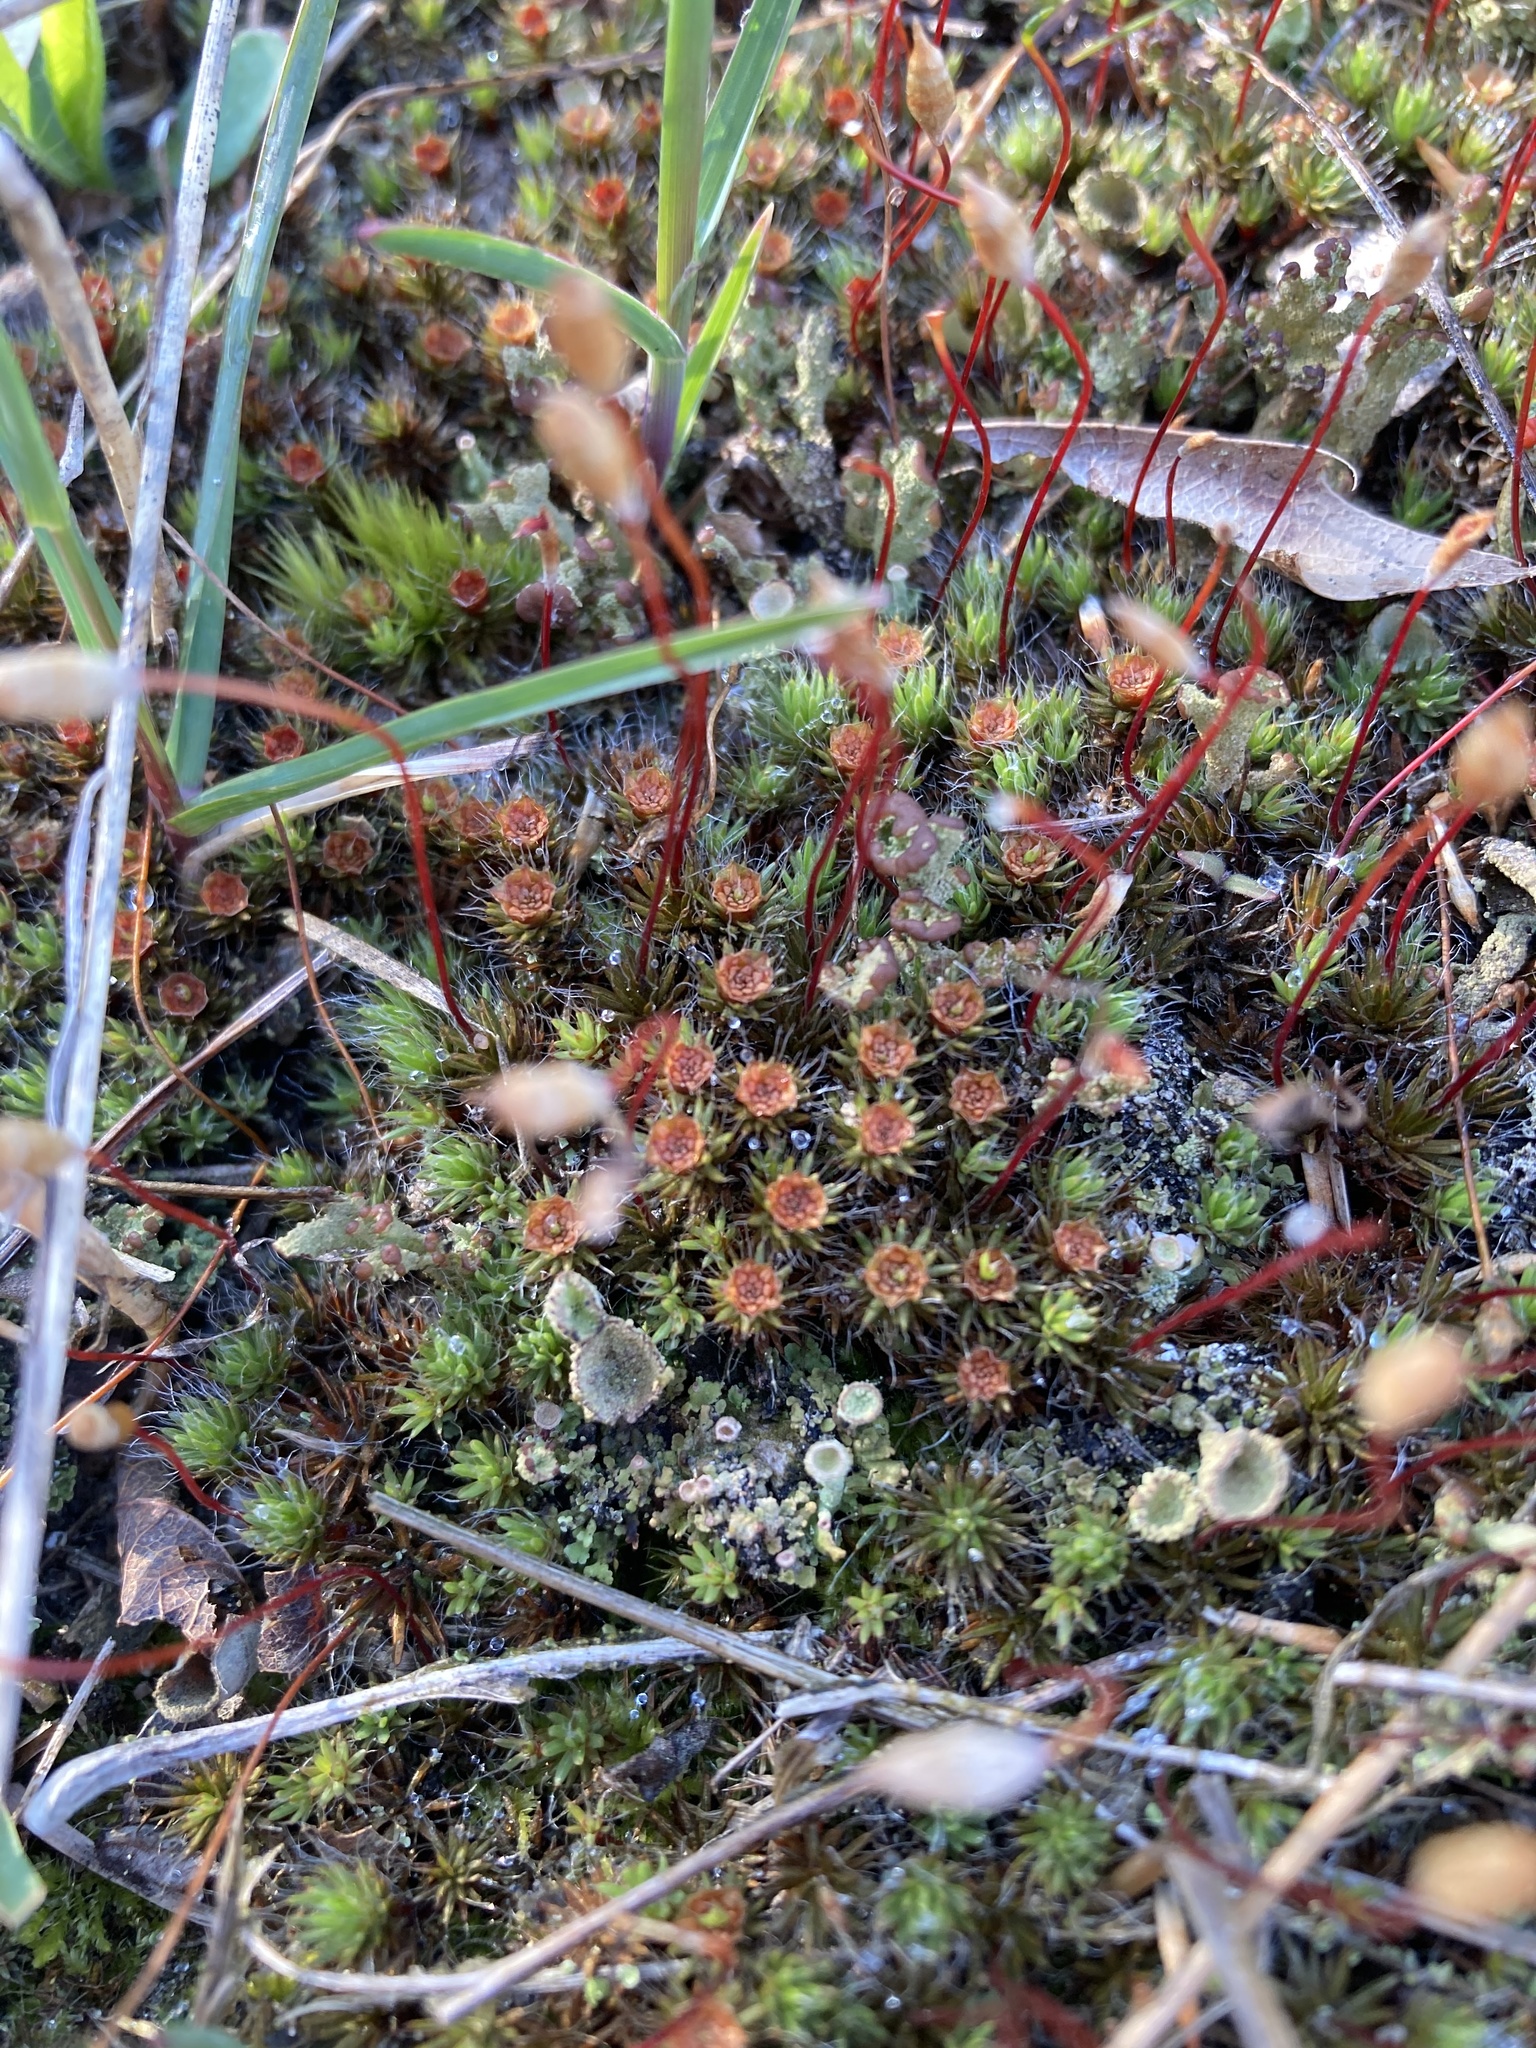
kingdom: Plantae
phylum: Bryophyta
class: Polytrichopsida
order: Polytrichales
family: Polytrichaceae
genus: Polytrichum
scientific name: Polytrichum piliferum
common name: Bristly haircap
